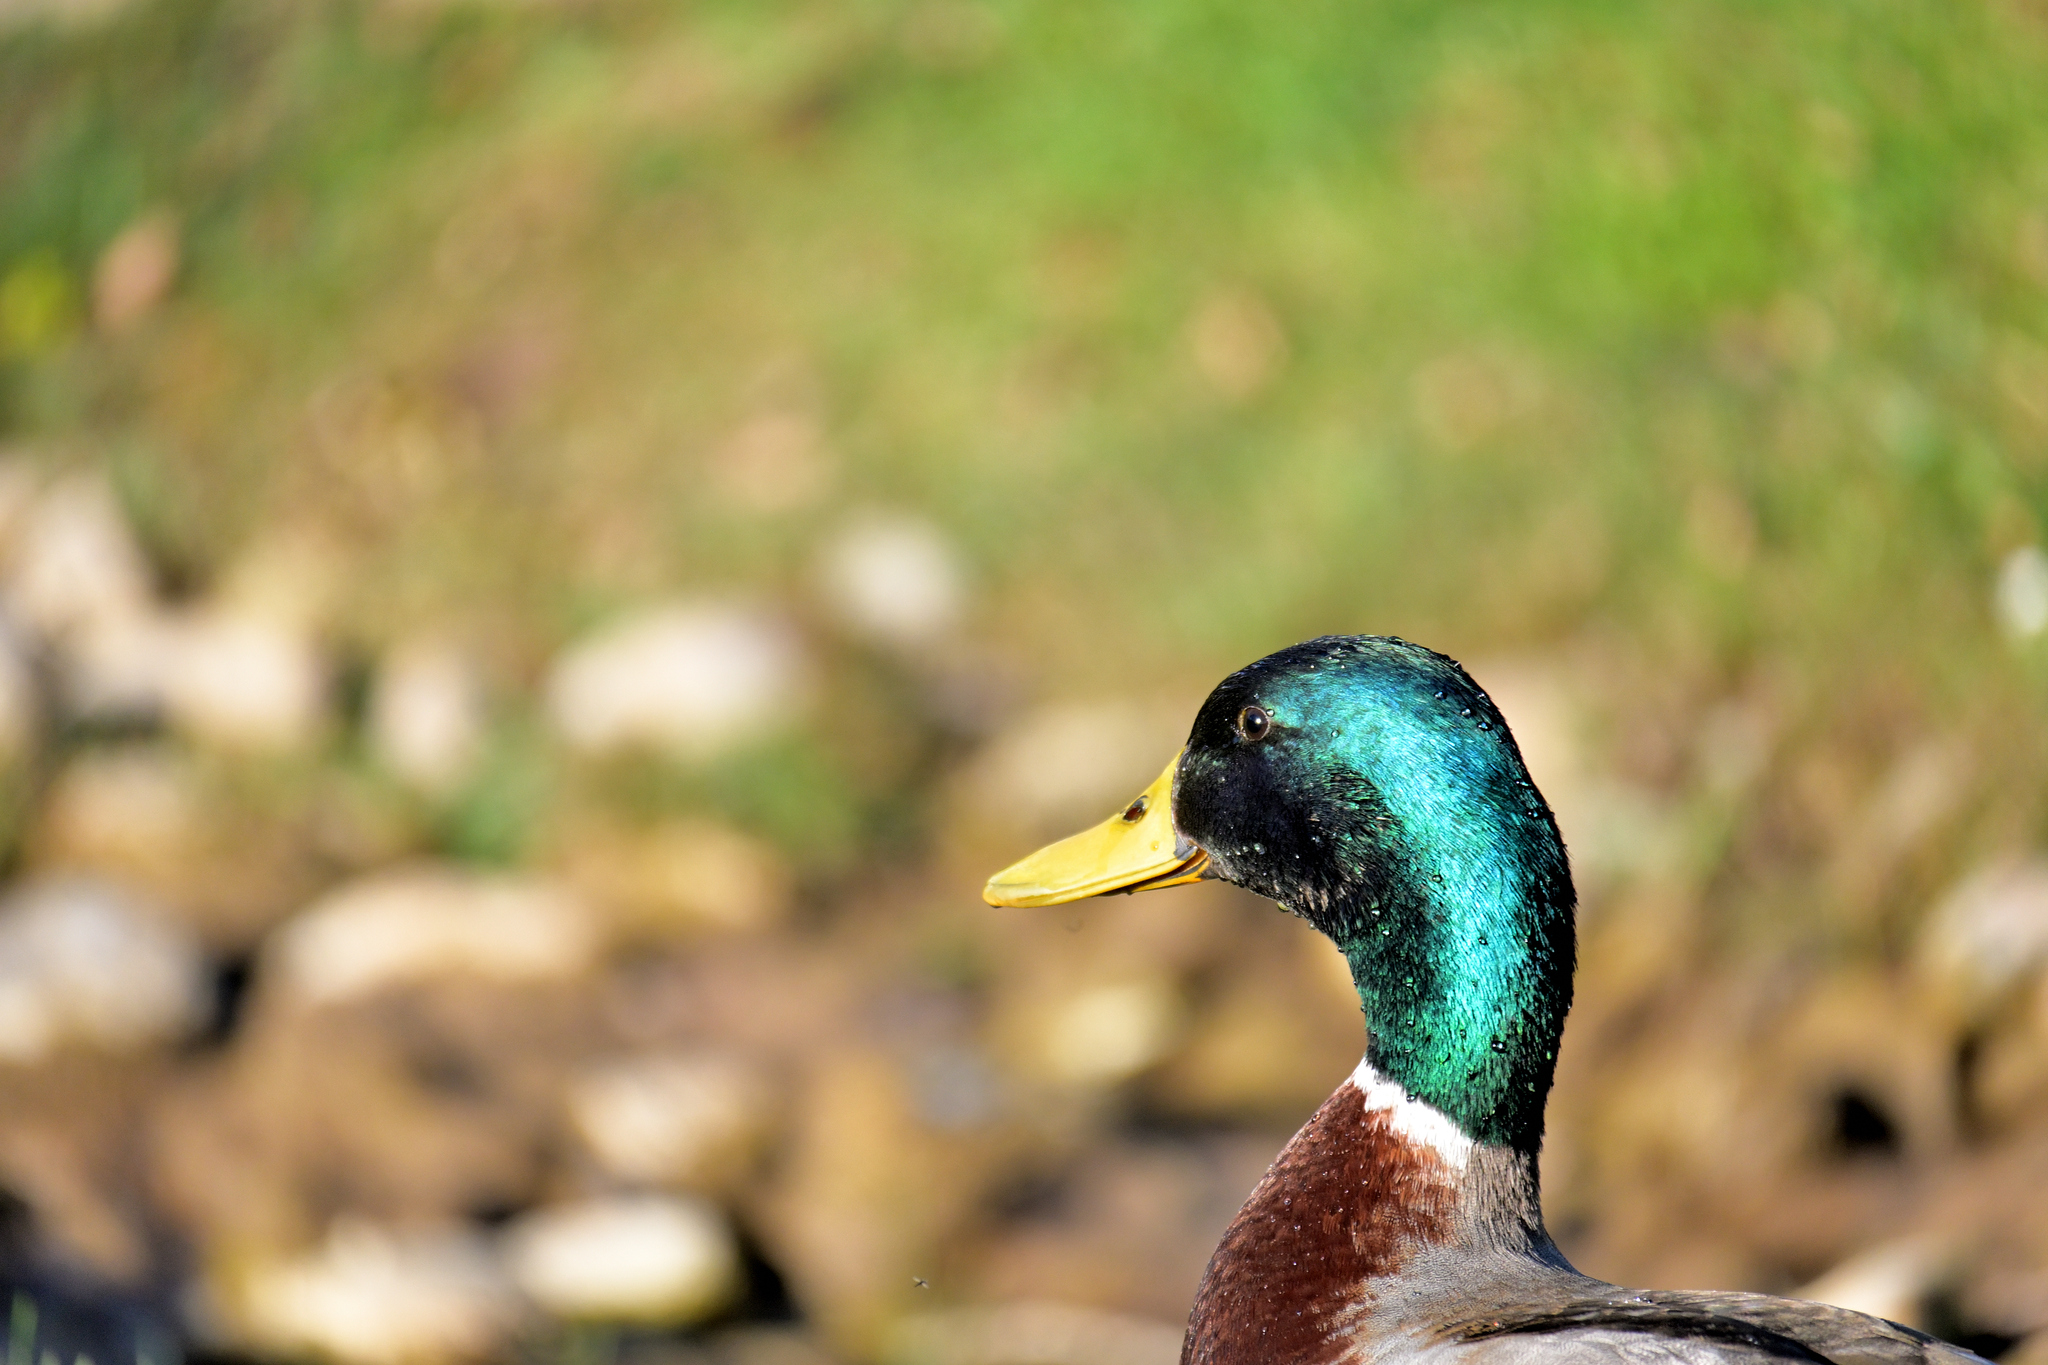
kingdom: Animalia
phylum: Chordata
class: Aves
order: Anseriformes
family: Anatidae
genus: Anas
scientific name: Anas platyrhynchos
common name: Mallard
